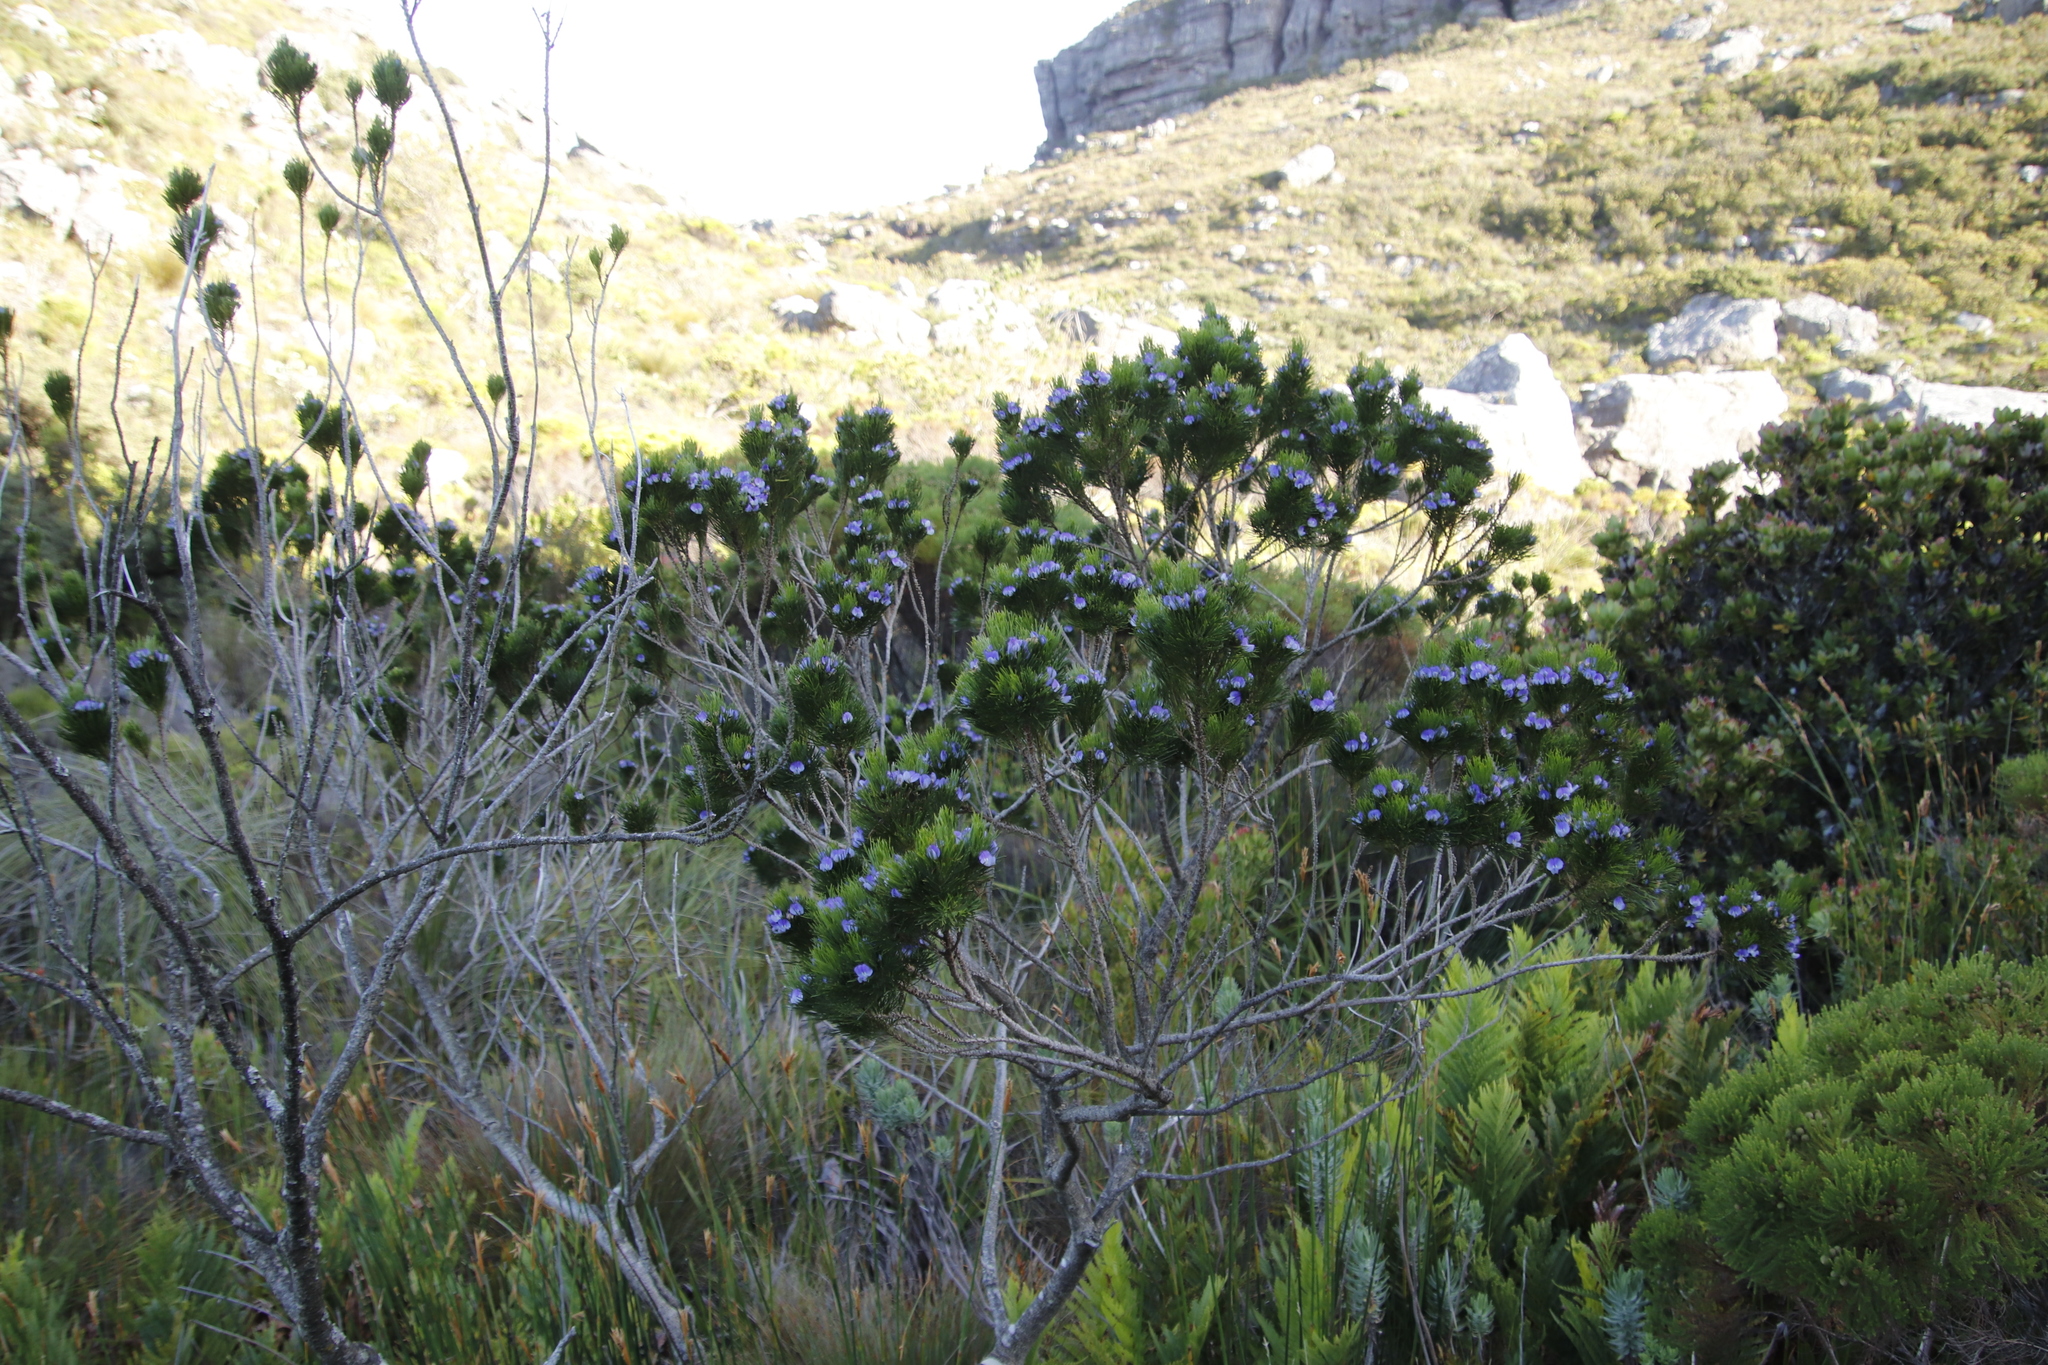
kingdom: Plantae
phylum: Tracheophyta
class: Magnoliopsida
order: Fabales
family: Fabaceae
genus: Psoralea
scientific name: Psoralea pinnata
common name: African scurfpea
